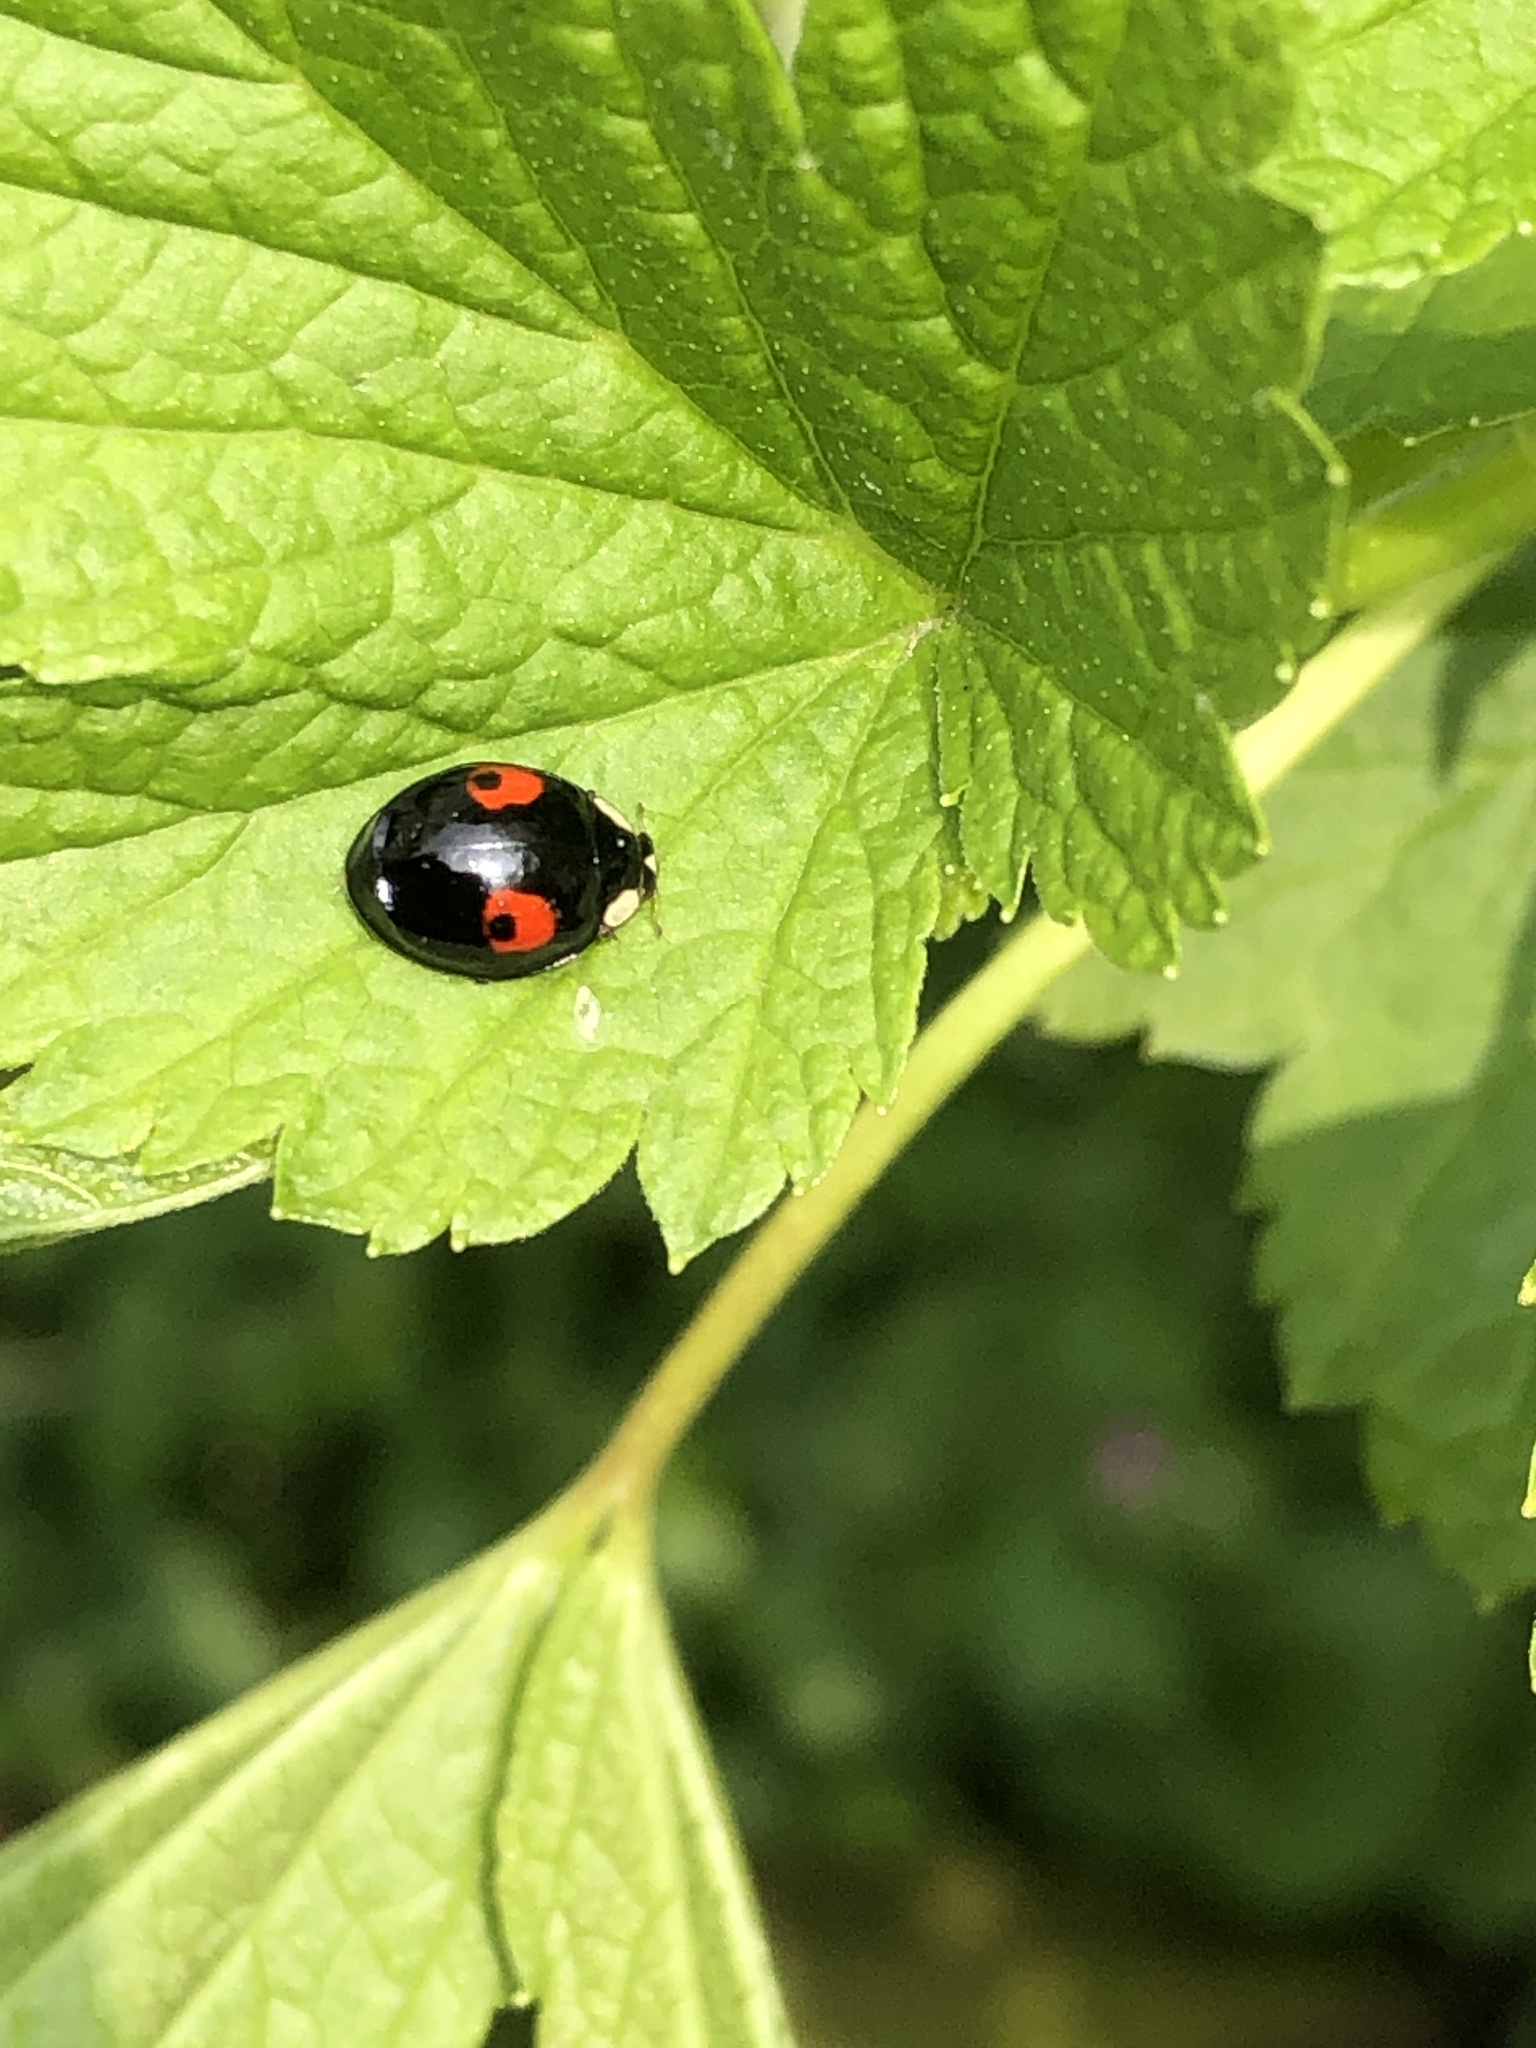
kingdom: Animalia
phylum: Arthropoda
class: Insecta
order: Coleoptera
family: Coccinellidae
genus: Harmonia
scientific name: Harmonia axyridis
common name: Harlequin ladybird
